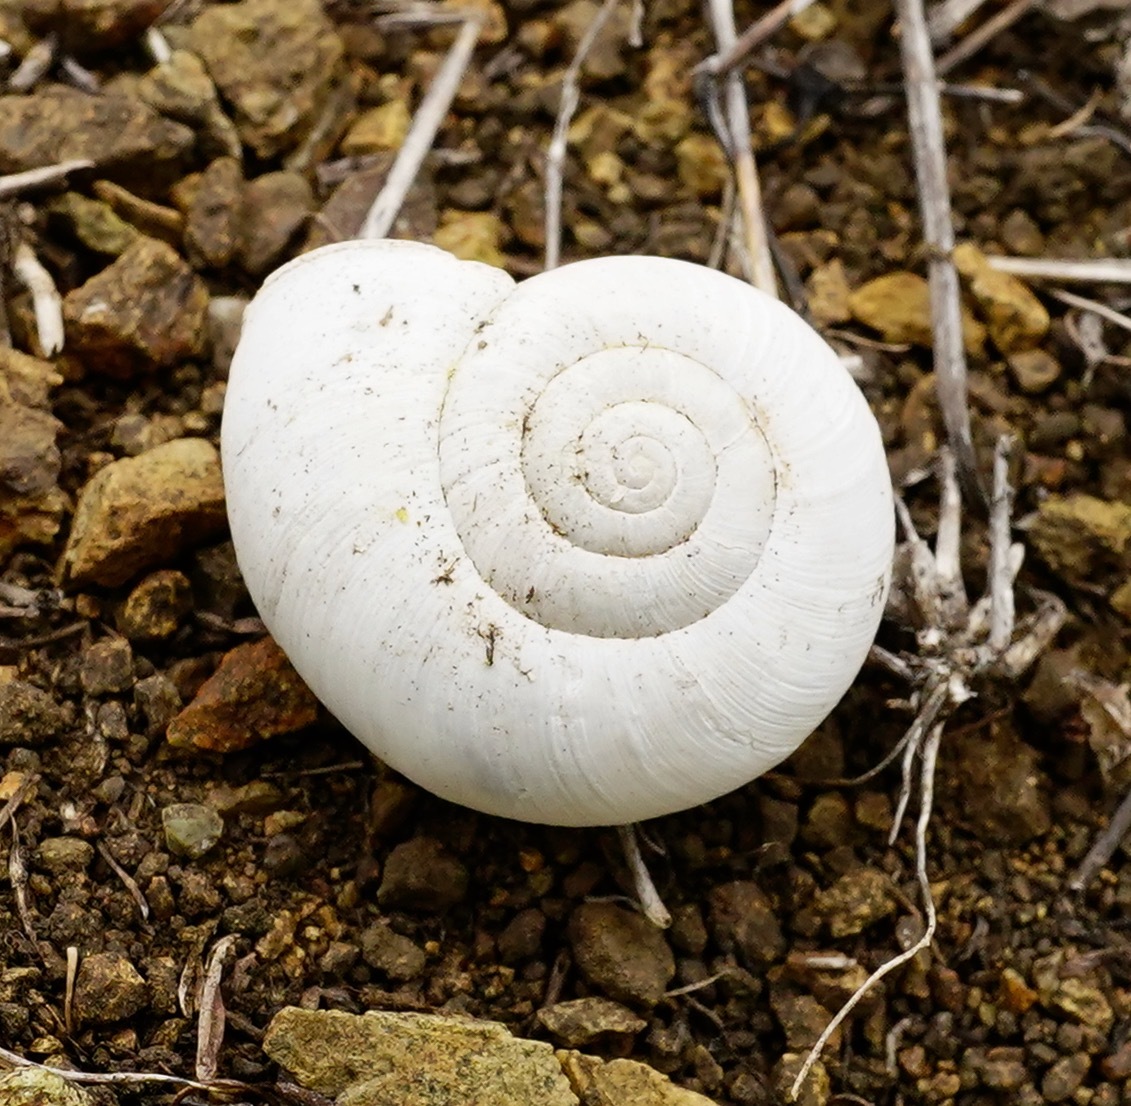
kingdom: Animalia
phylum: Mollusca
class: Gastropoda
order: Stylommatophora
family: Haplotrematidae
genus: Haplotrema
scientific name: Haplotrema minimum
